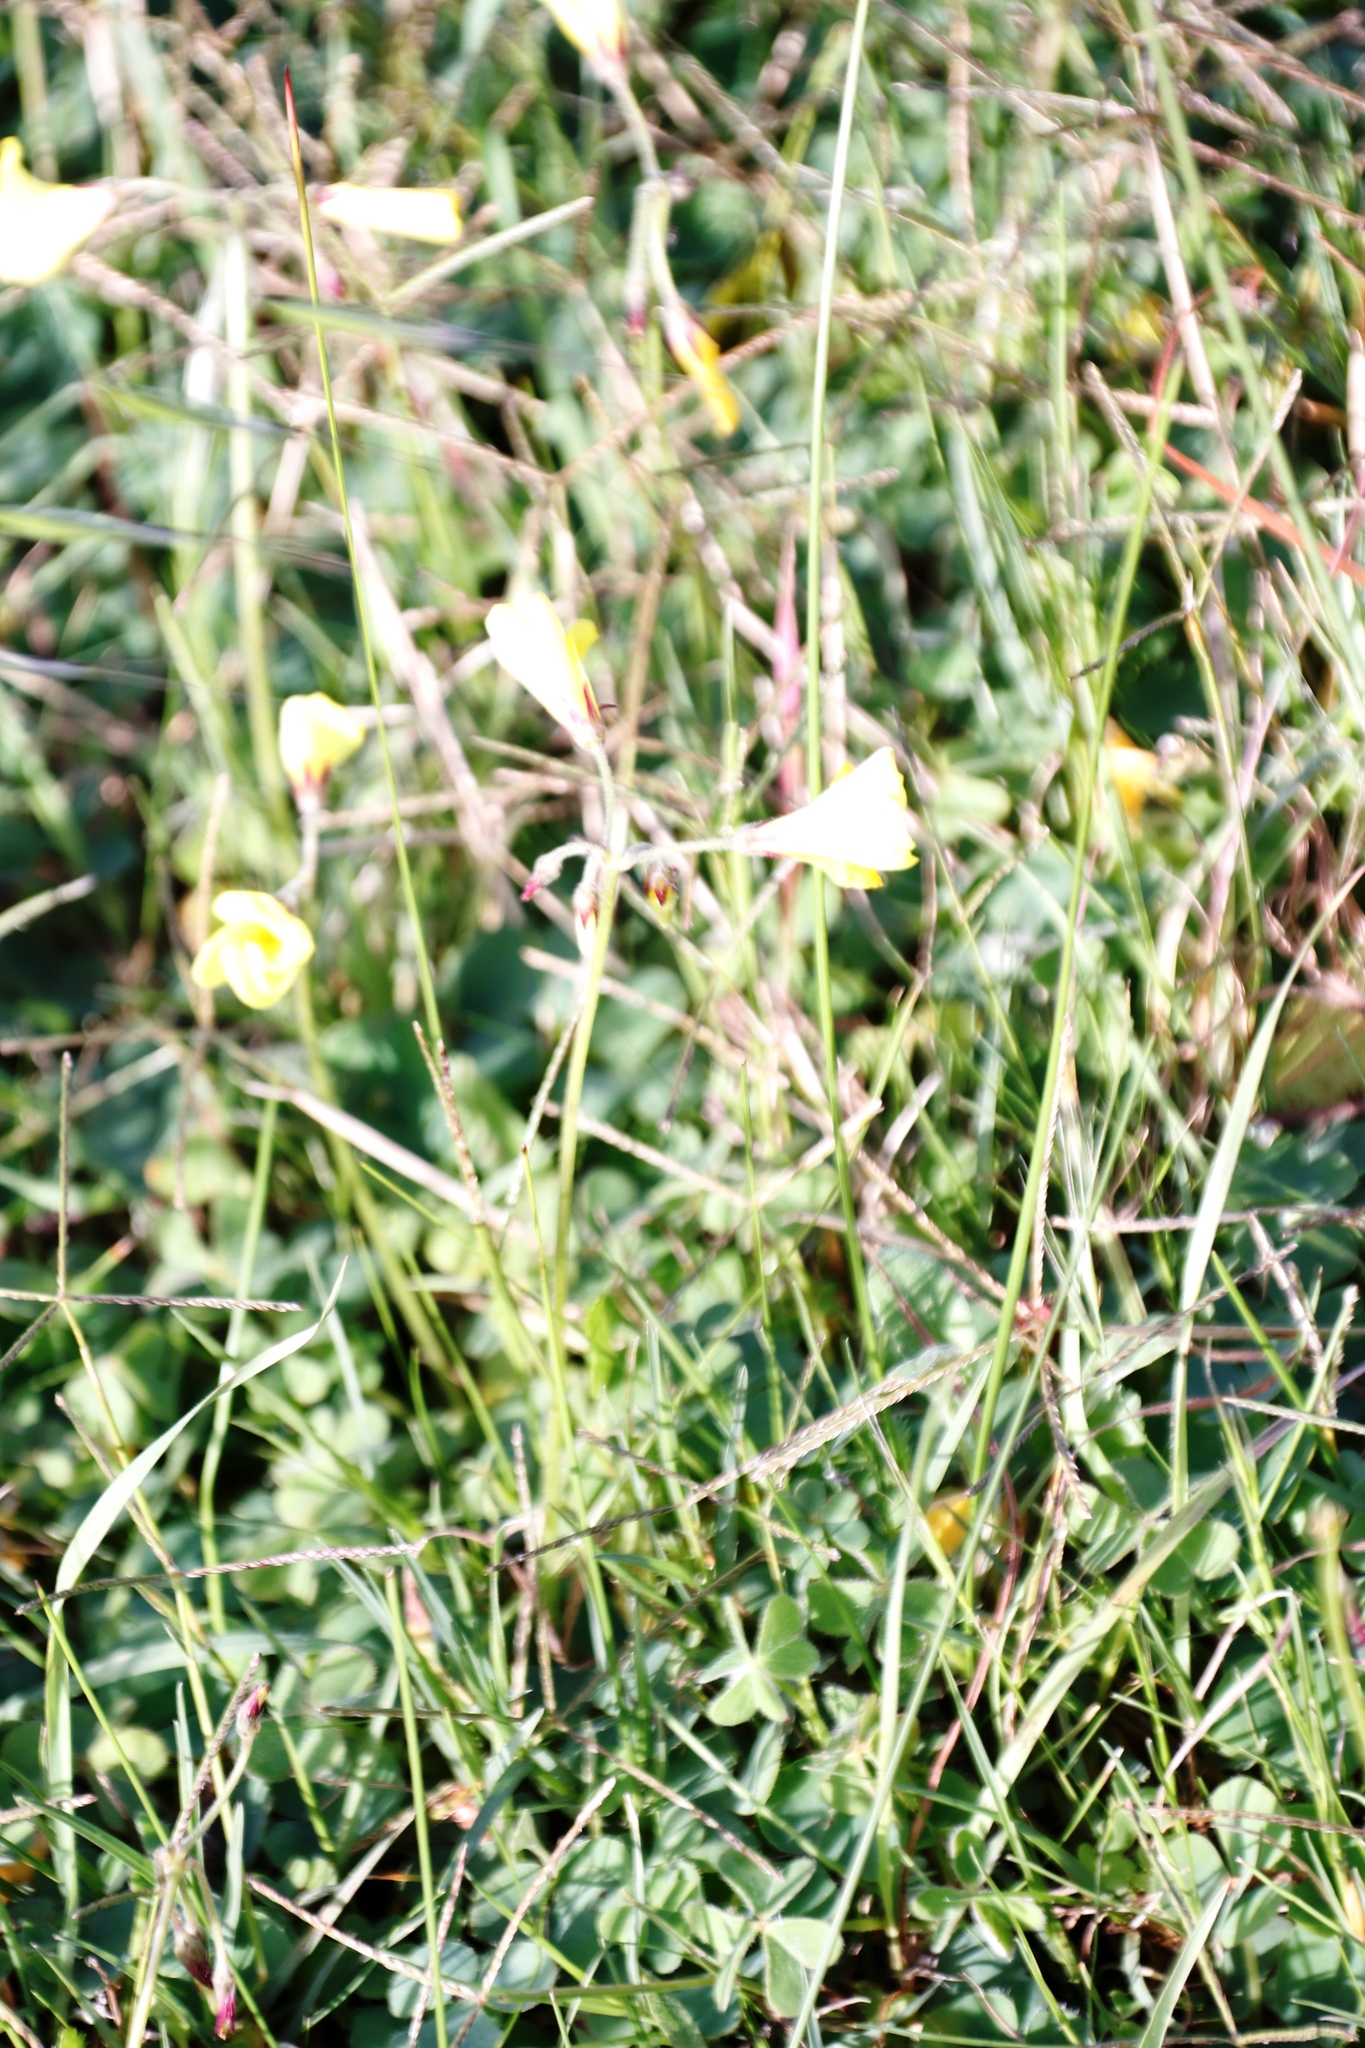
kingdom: Plantae
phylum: Tracheophyta
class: Magnoliopsida
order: Oxalidales
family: Oxalidaceae
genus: Oxalis
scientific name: Oxalis pes-caprae
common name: Bermuda-buttercup
